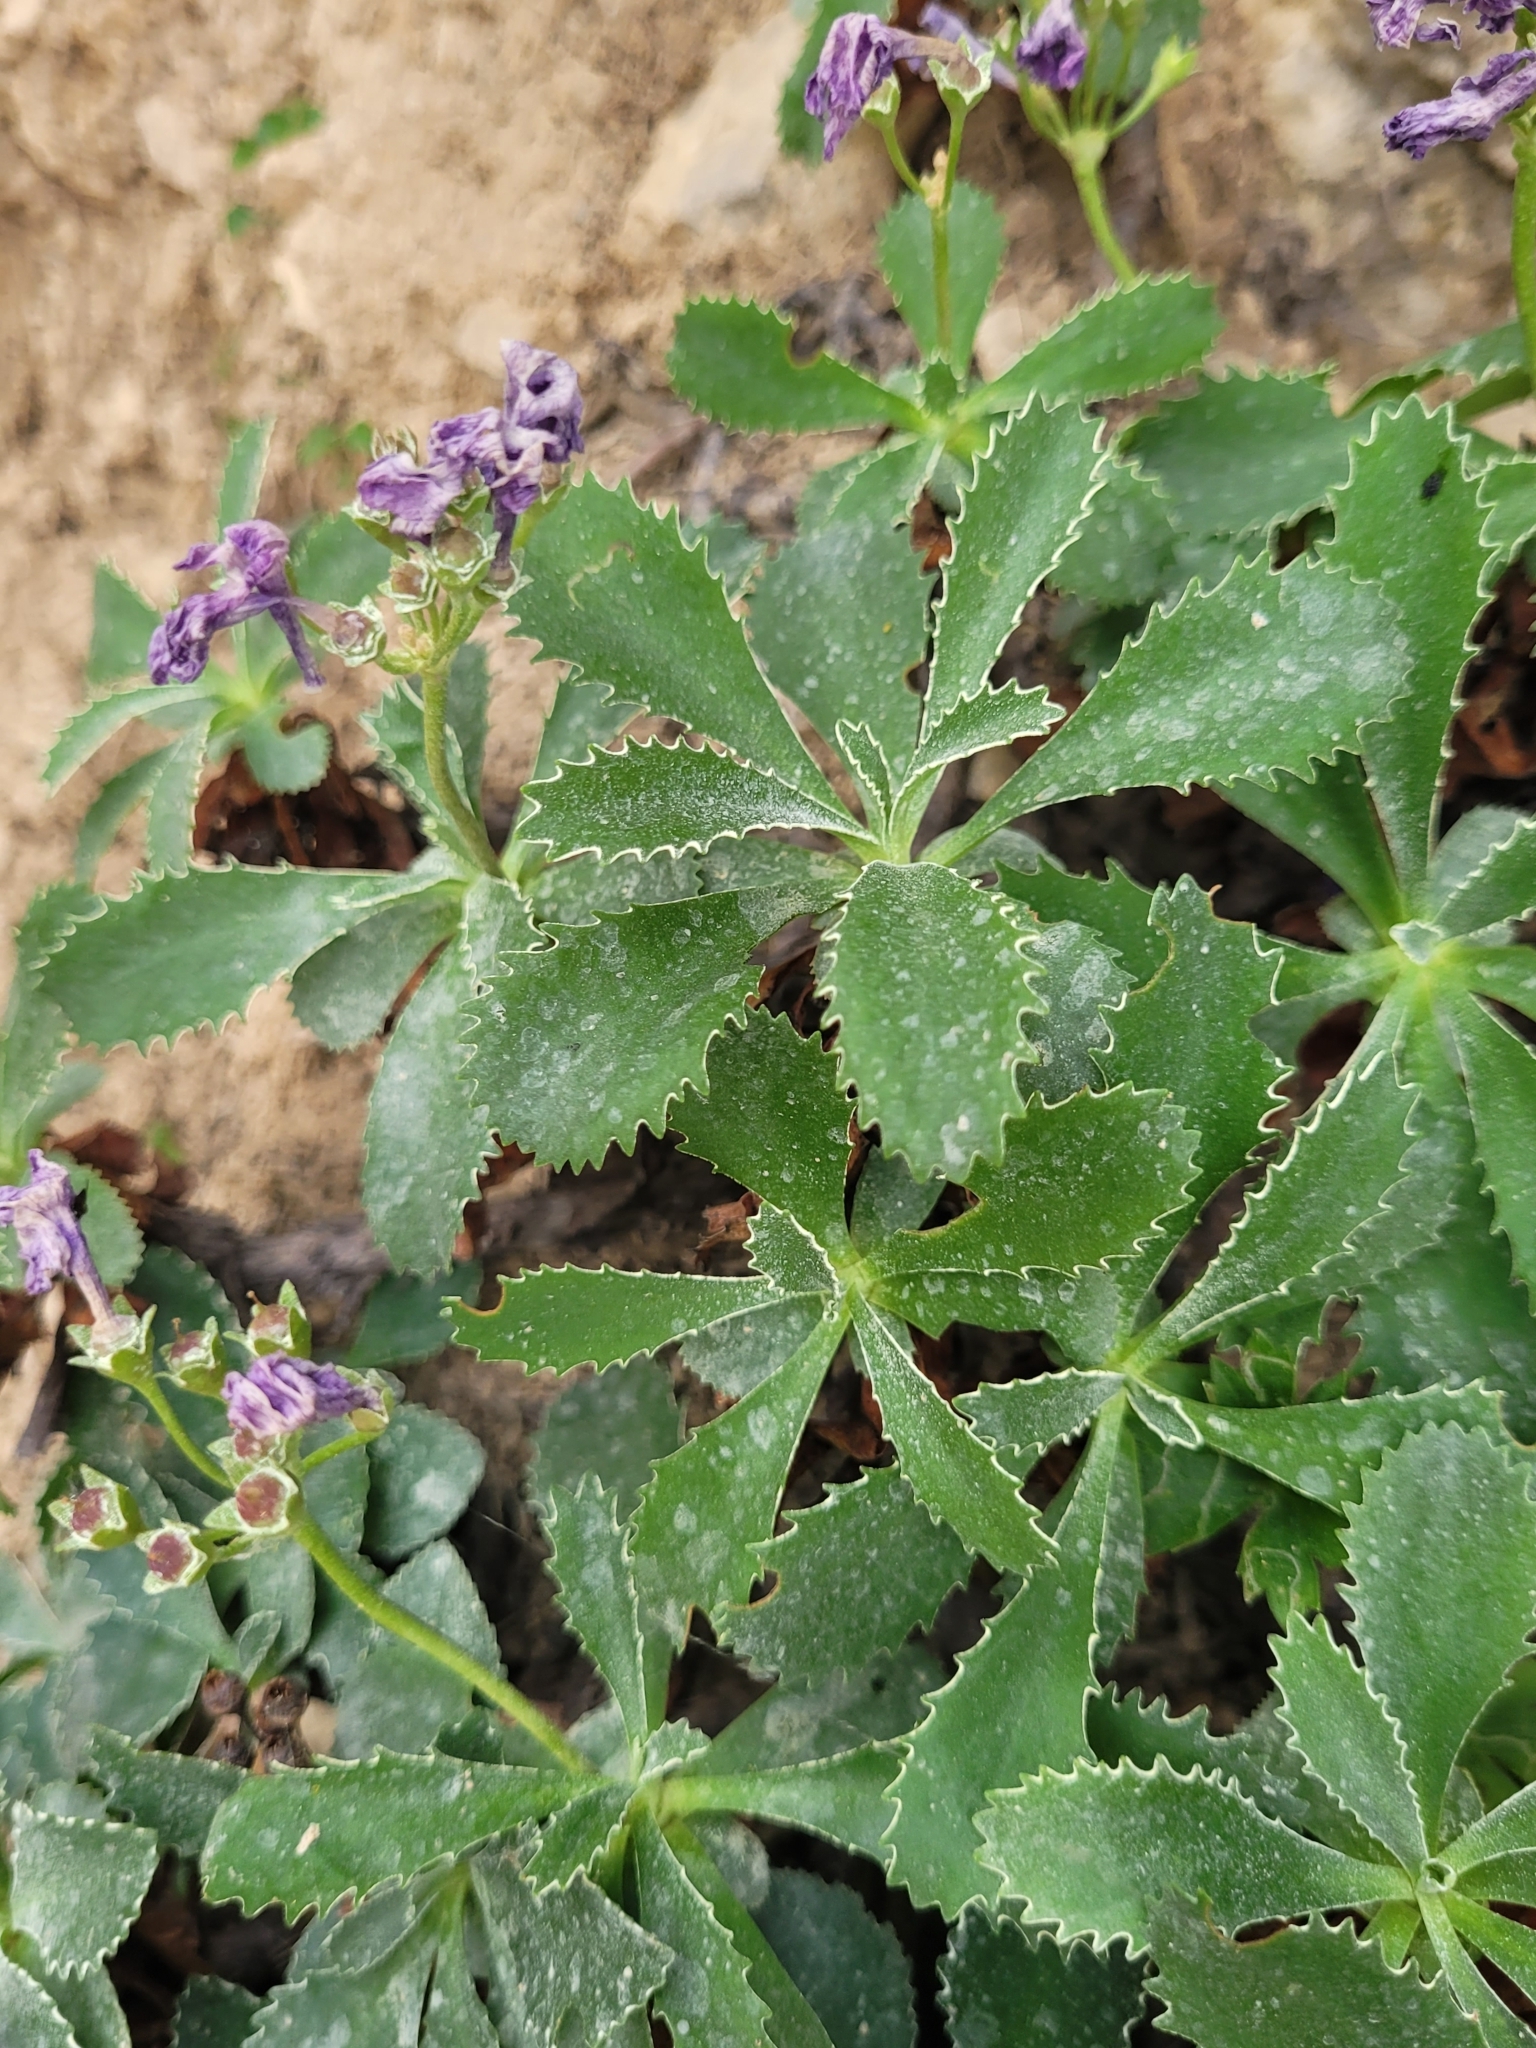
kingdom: Plantae
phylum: Tracheophyta
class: Magnoliopsida
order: Ericales
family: Primulaceae
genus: Primula
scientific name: Primula marginata
